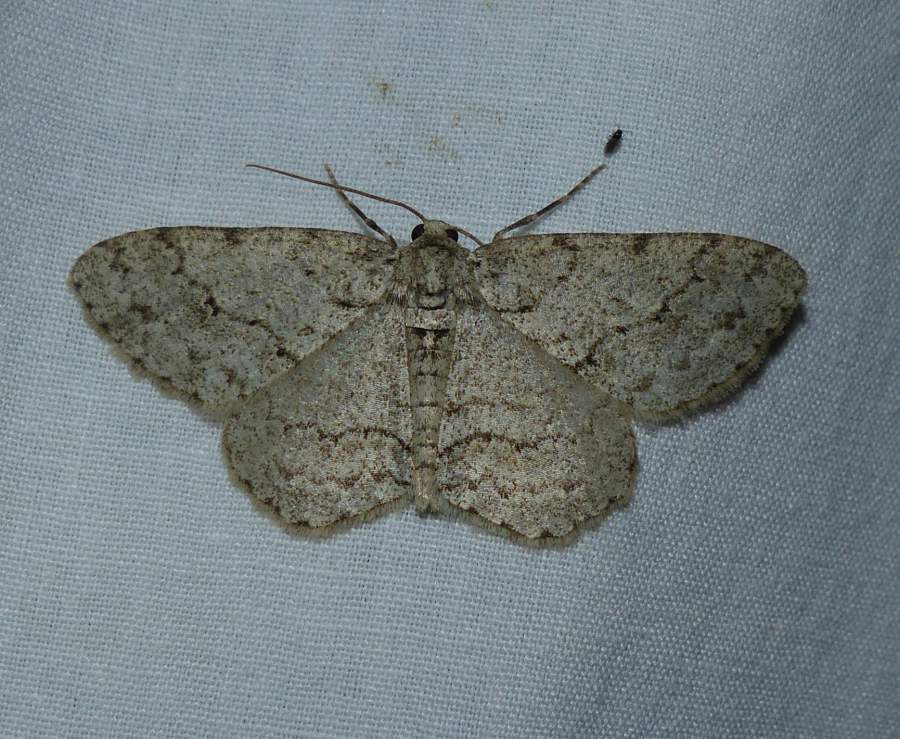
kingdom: Animalia
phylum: Arthropoda
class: Insecta
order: Lepidoptera
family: Geometridae
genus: Ectropis
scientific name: Ectropis crepuscularia
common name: Engrailed
